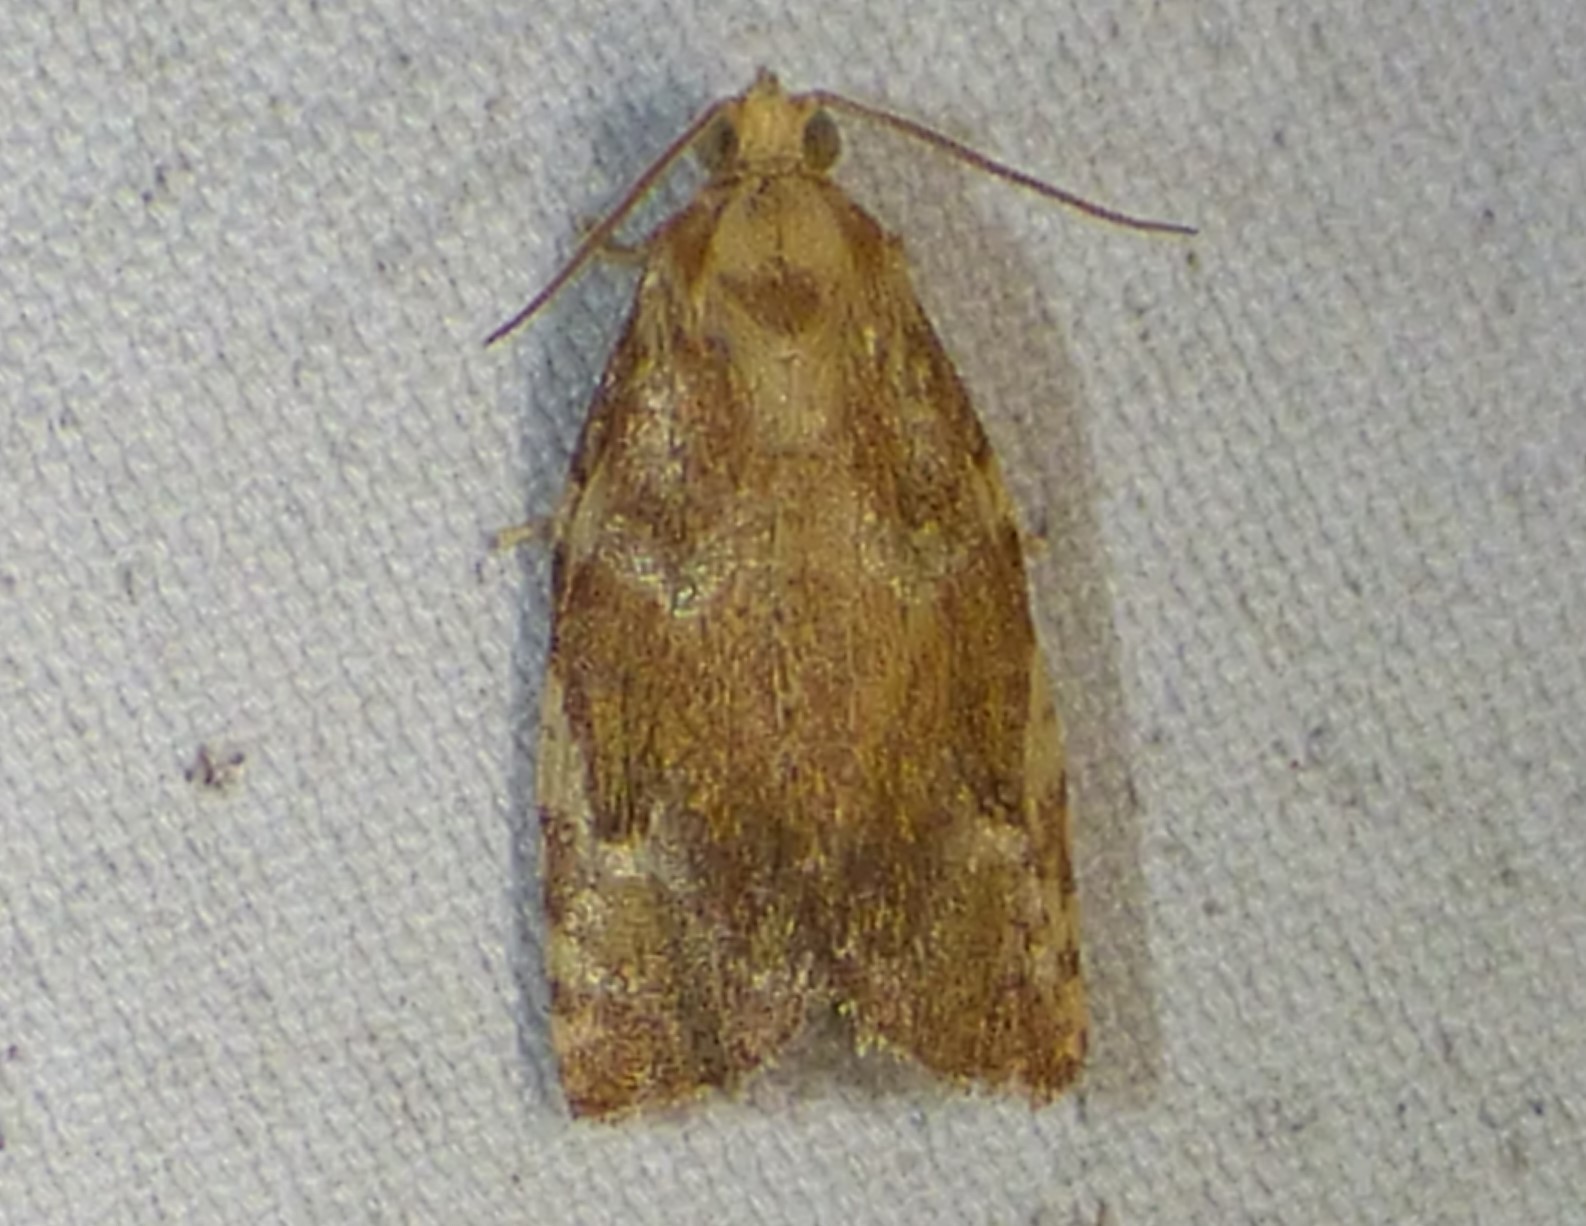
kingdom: Animalia
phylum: Arthropoda
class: Insecta
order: Lepidoptera
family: Tortricidae
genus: Archips
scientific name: Archips semiferanus
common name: Oak leafroller
